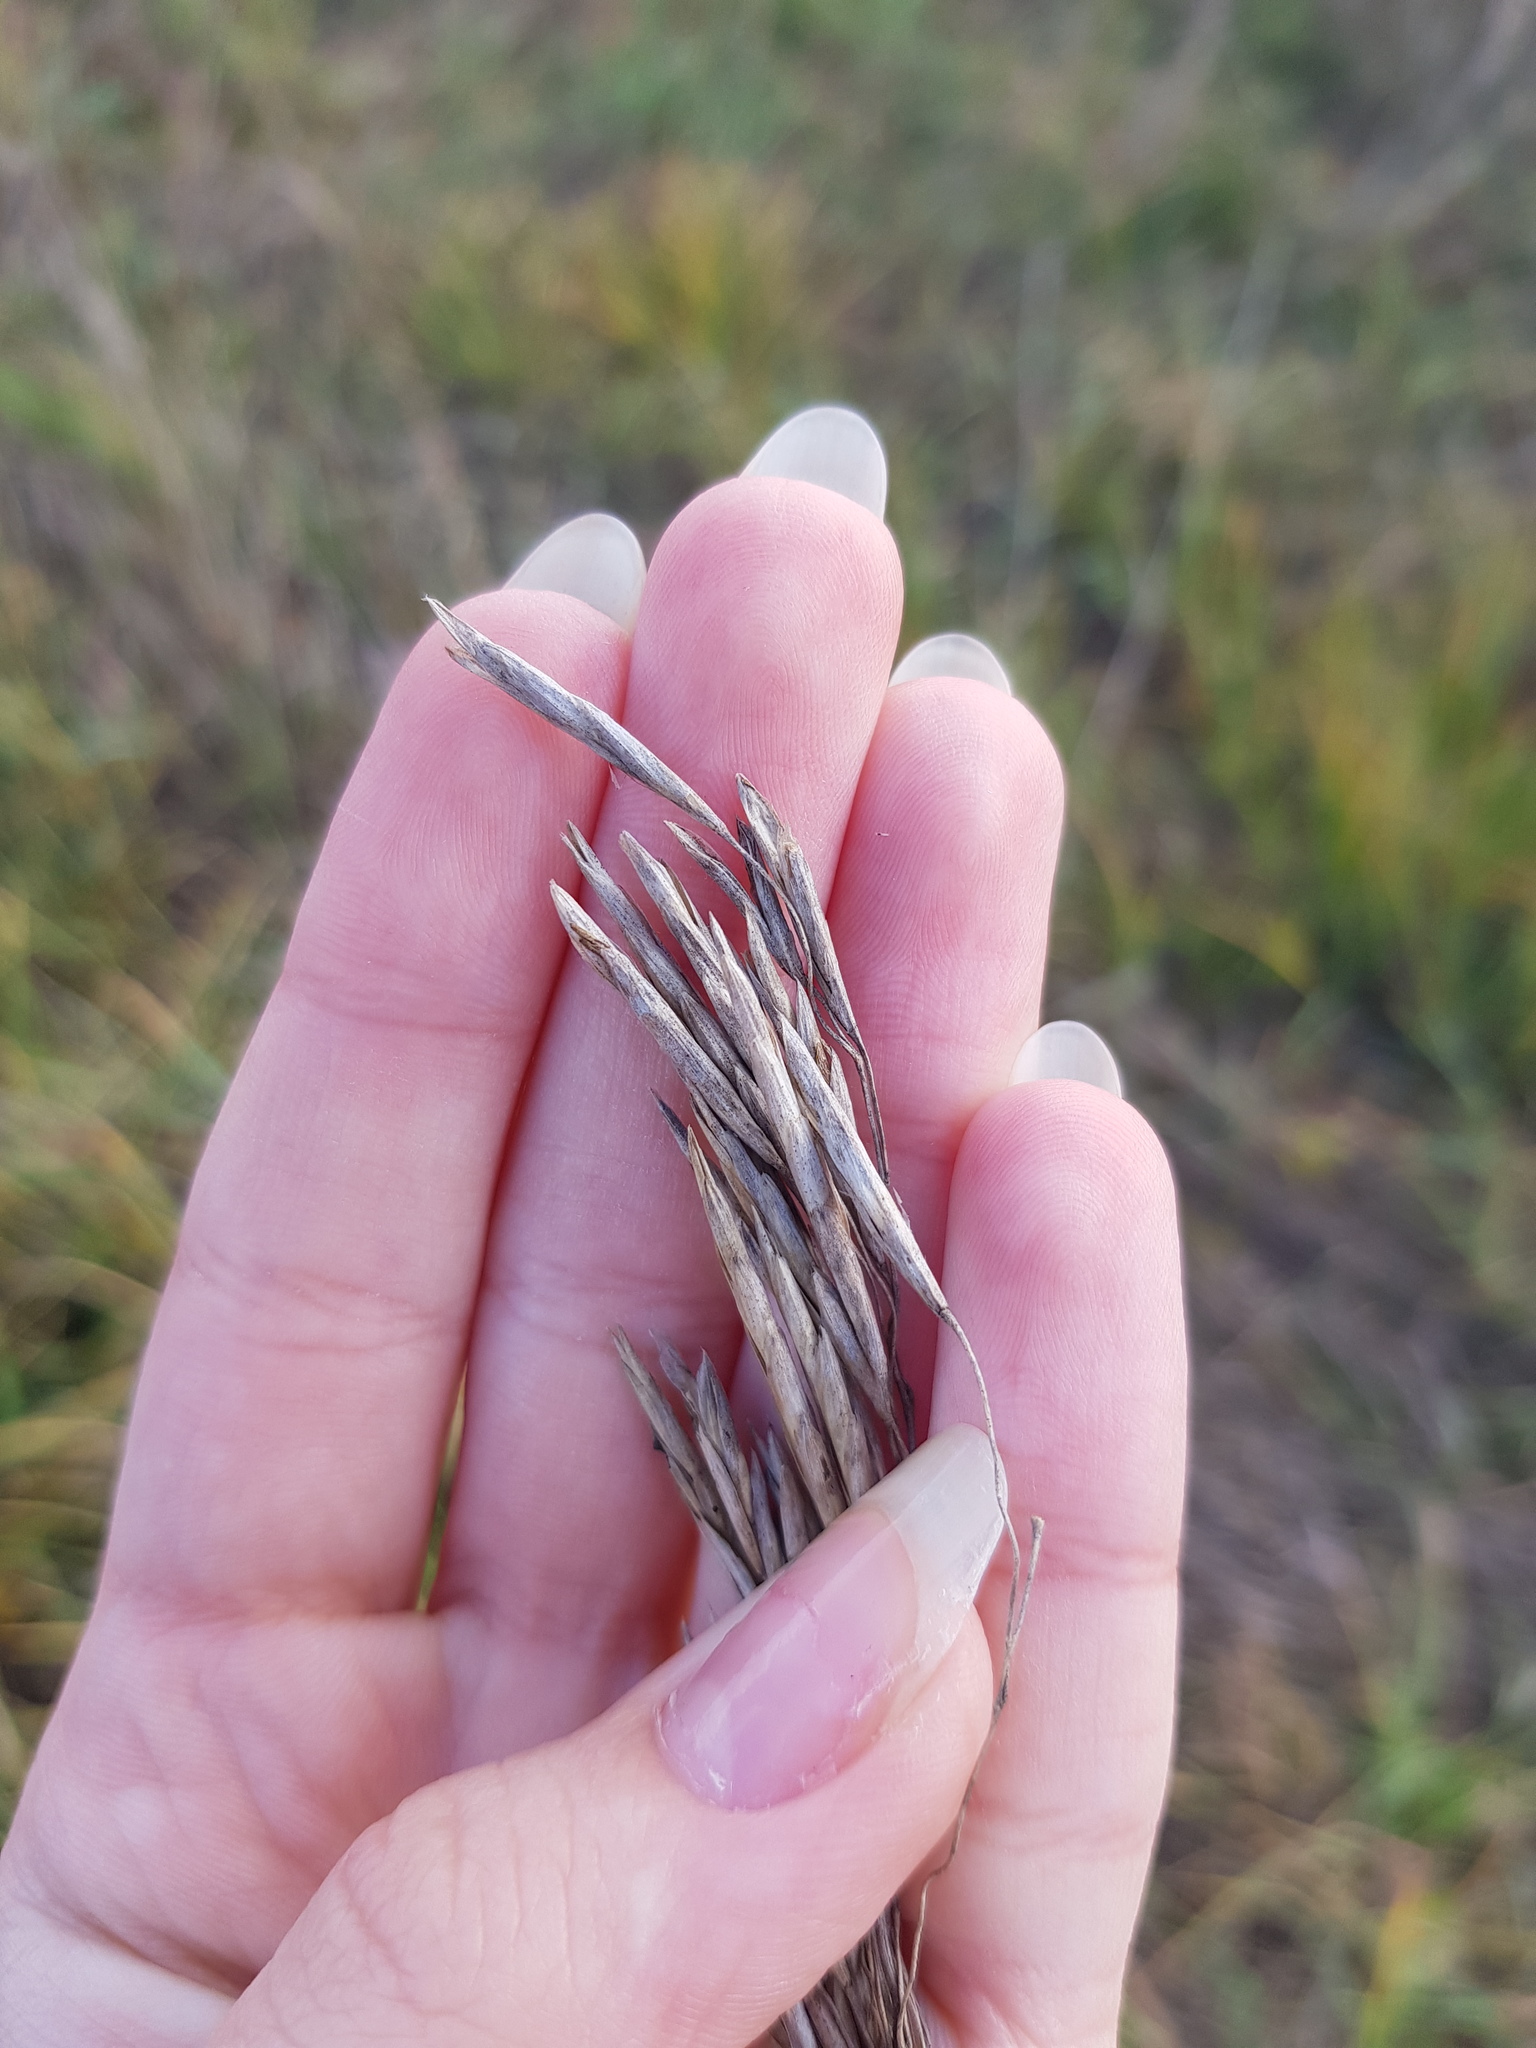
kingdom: Plantae
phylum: Tracheophyta
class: Liliopsida
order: Poales
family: Poaceae
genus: Bromus
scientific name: Bromus inermis
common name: Smooth brome
